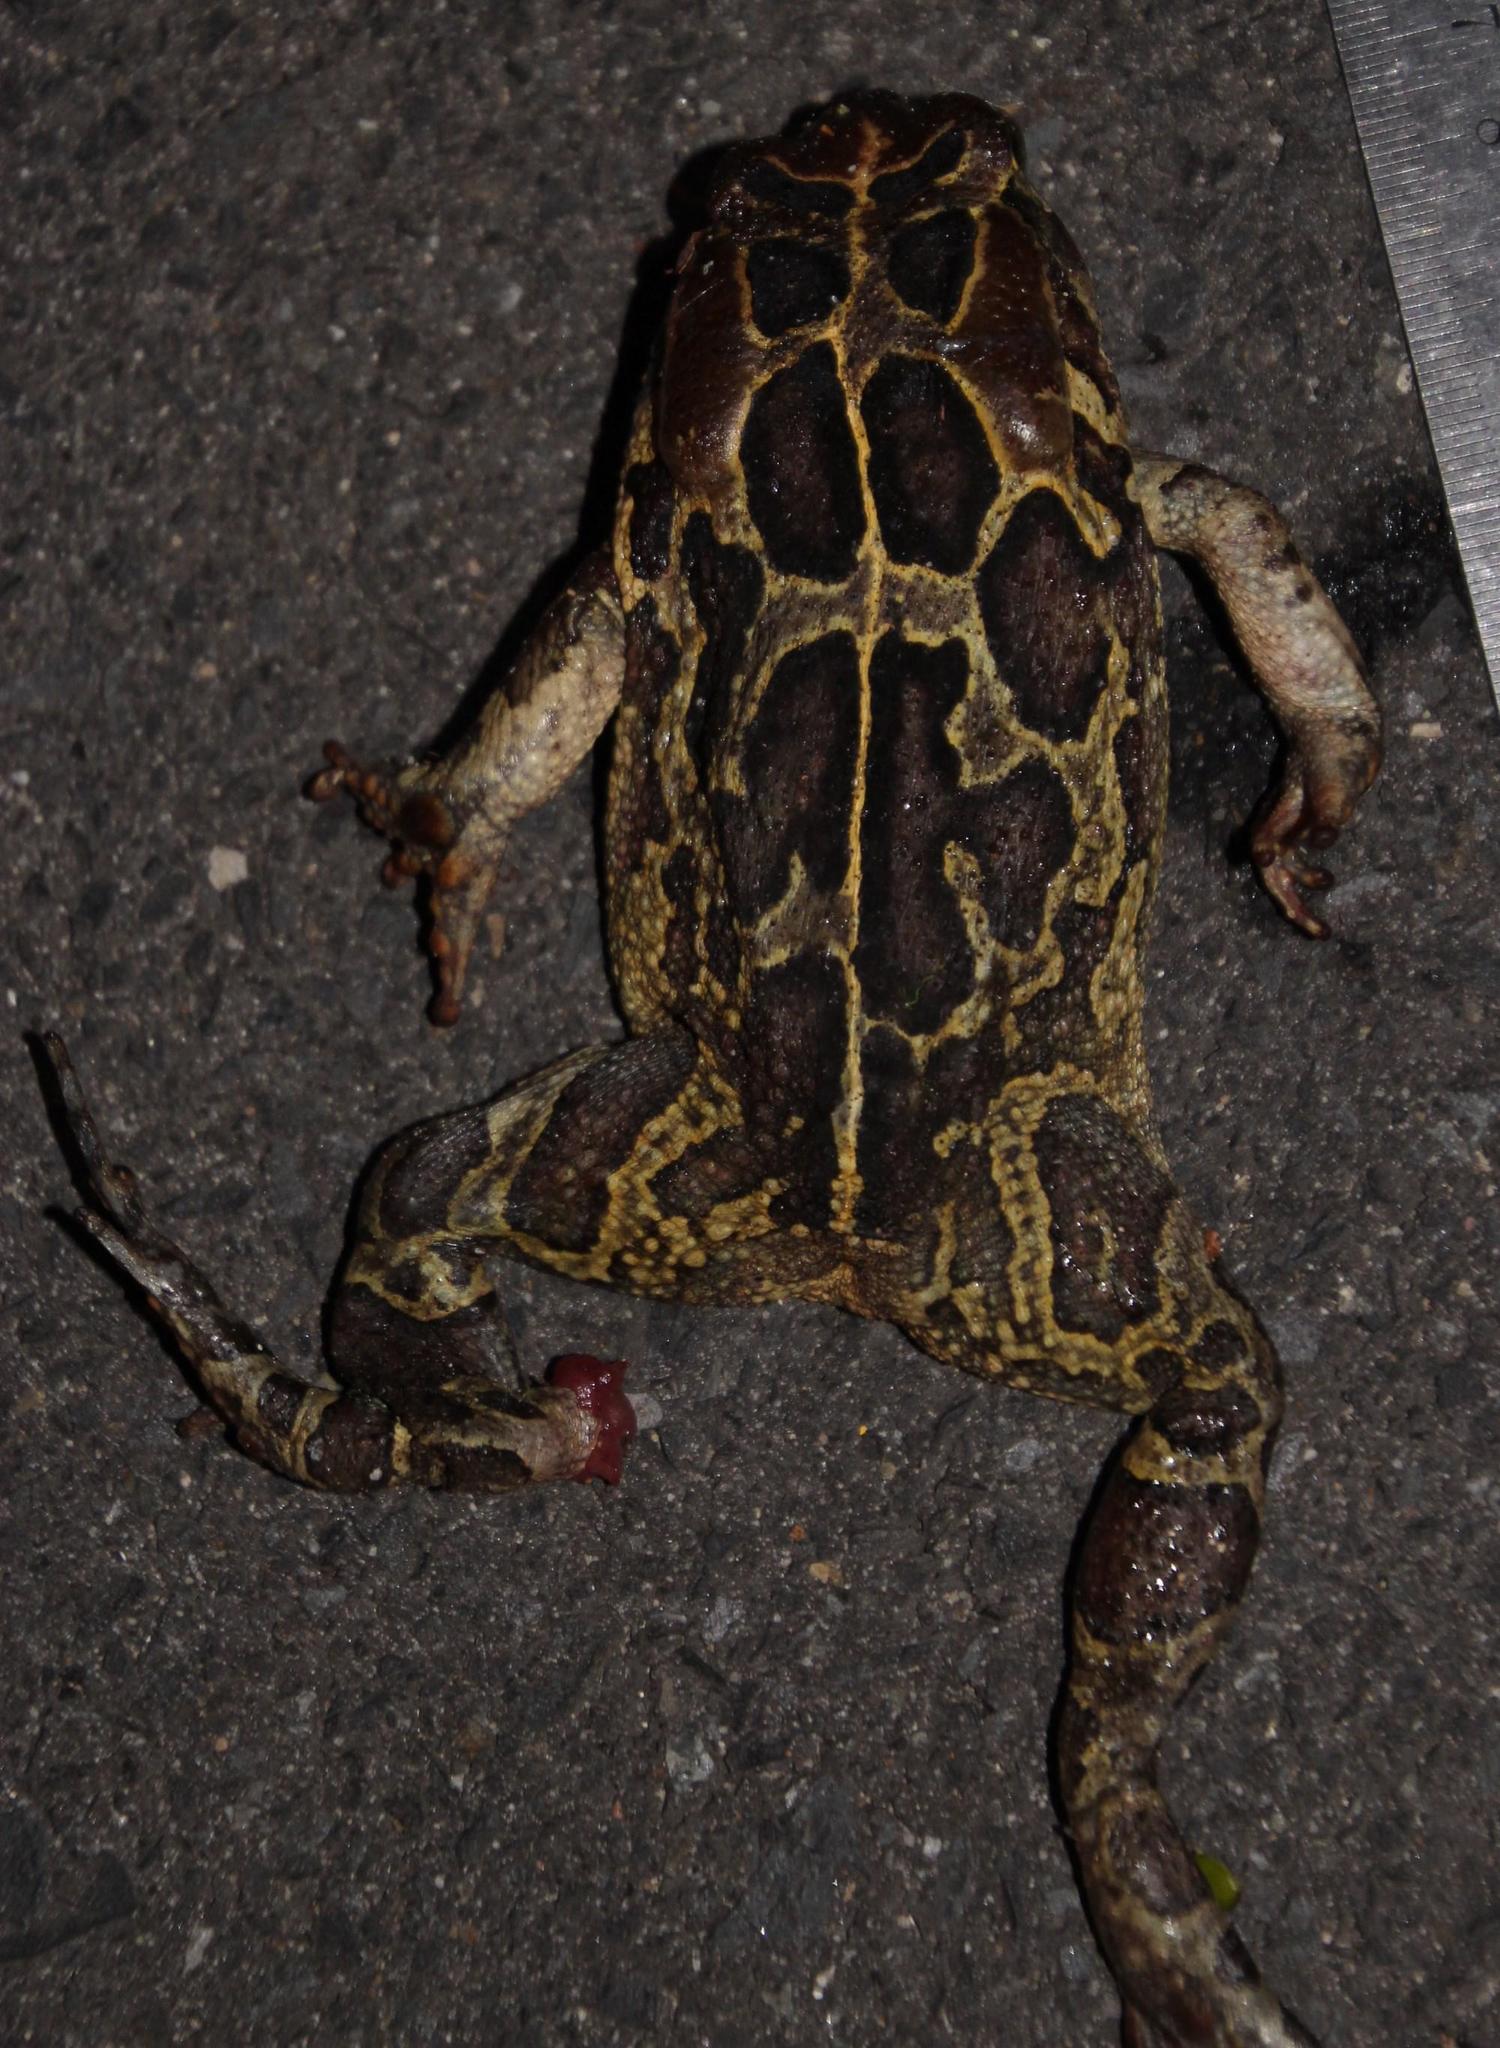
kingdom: Animalia
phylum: Chordata
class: Amphibia
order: Anura
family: Bufonidae
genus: Sclerophrys
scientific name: Sclerophrys pantherina
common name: Panther toad
